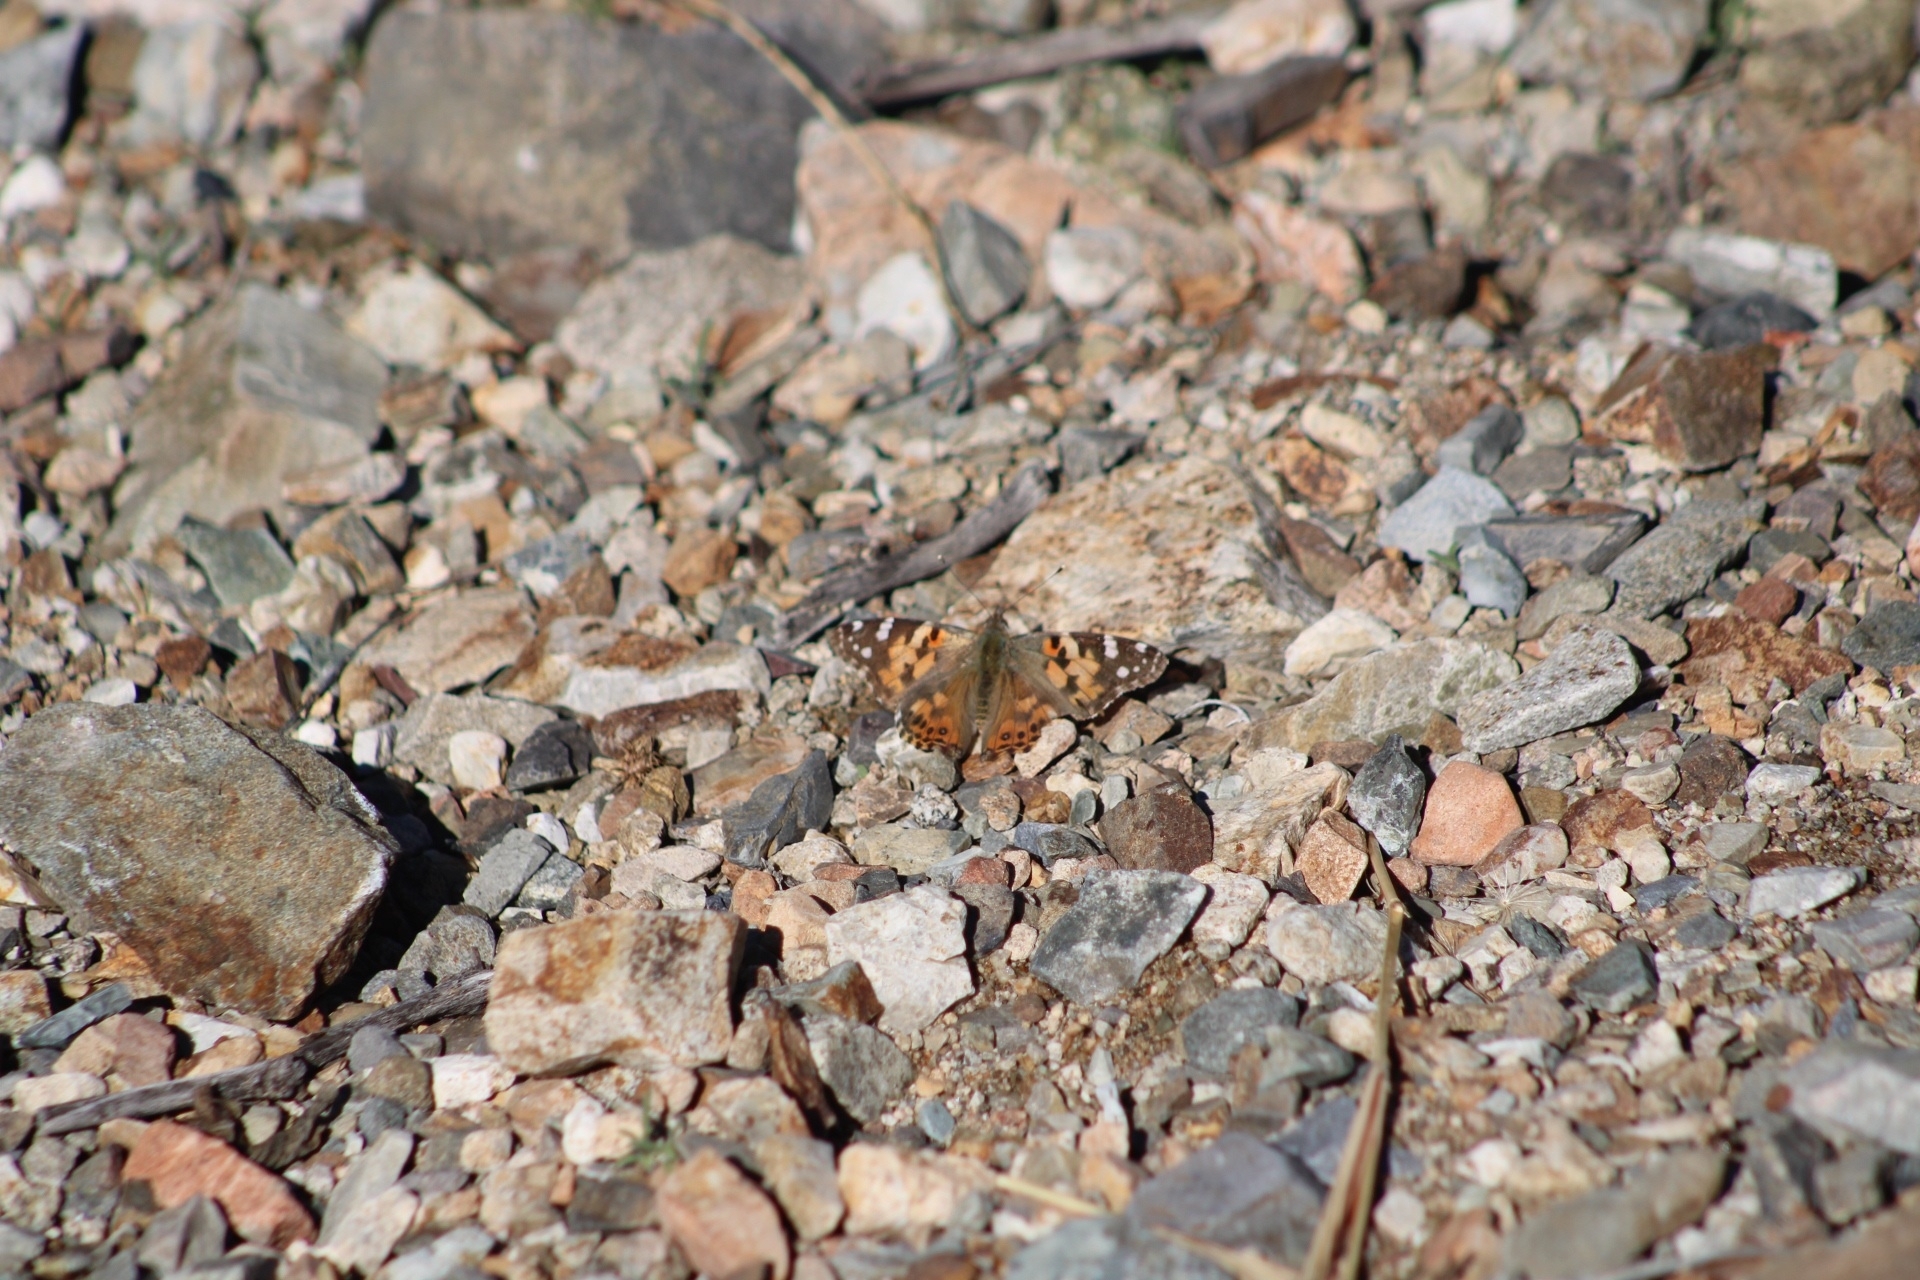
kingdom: Animalia
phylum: Arthropoda
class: Insecta
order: Lepidoptera
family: Nymphalidae
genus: Vanessa
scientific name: Vanessa cardui
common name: Painted lady
